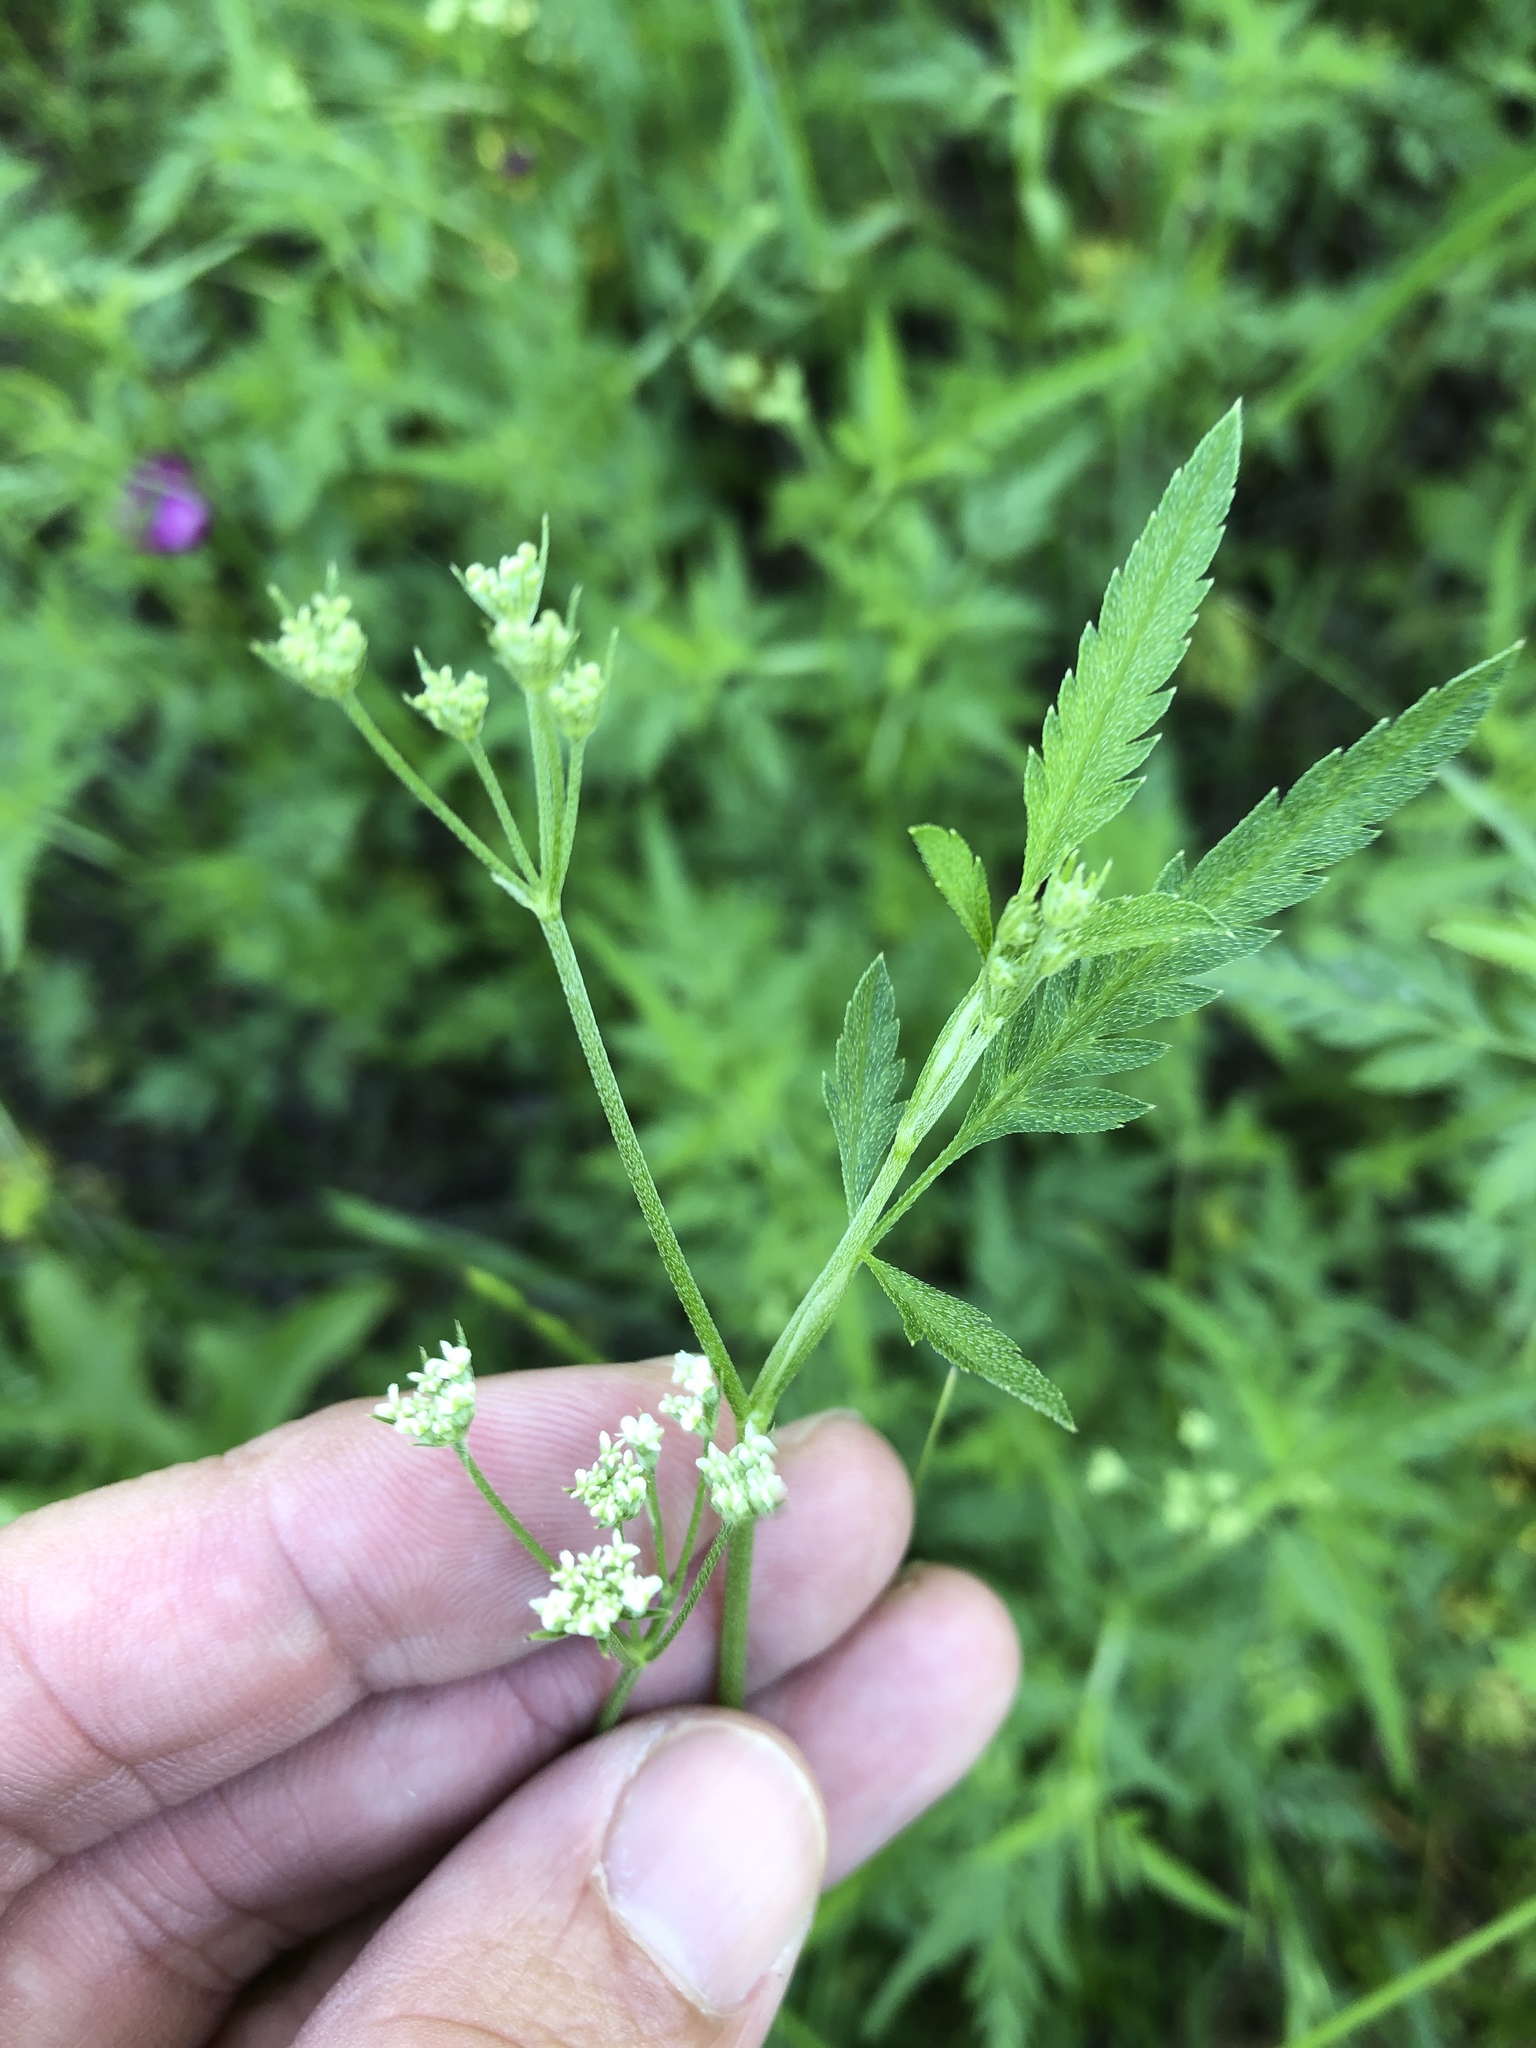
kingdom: Plantae
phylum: Tracheophyta
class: Magnoliopsida
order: Apiales
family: Apiaceae
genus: Torilis
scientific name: Torilis arvensis
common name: Spreading hedge-parsley
